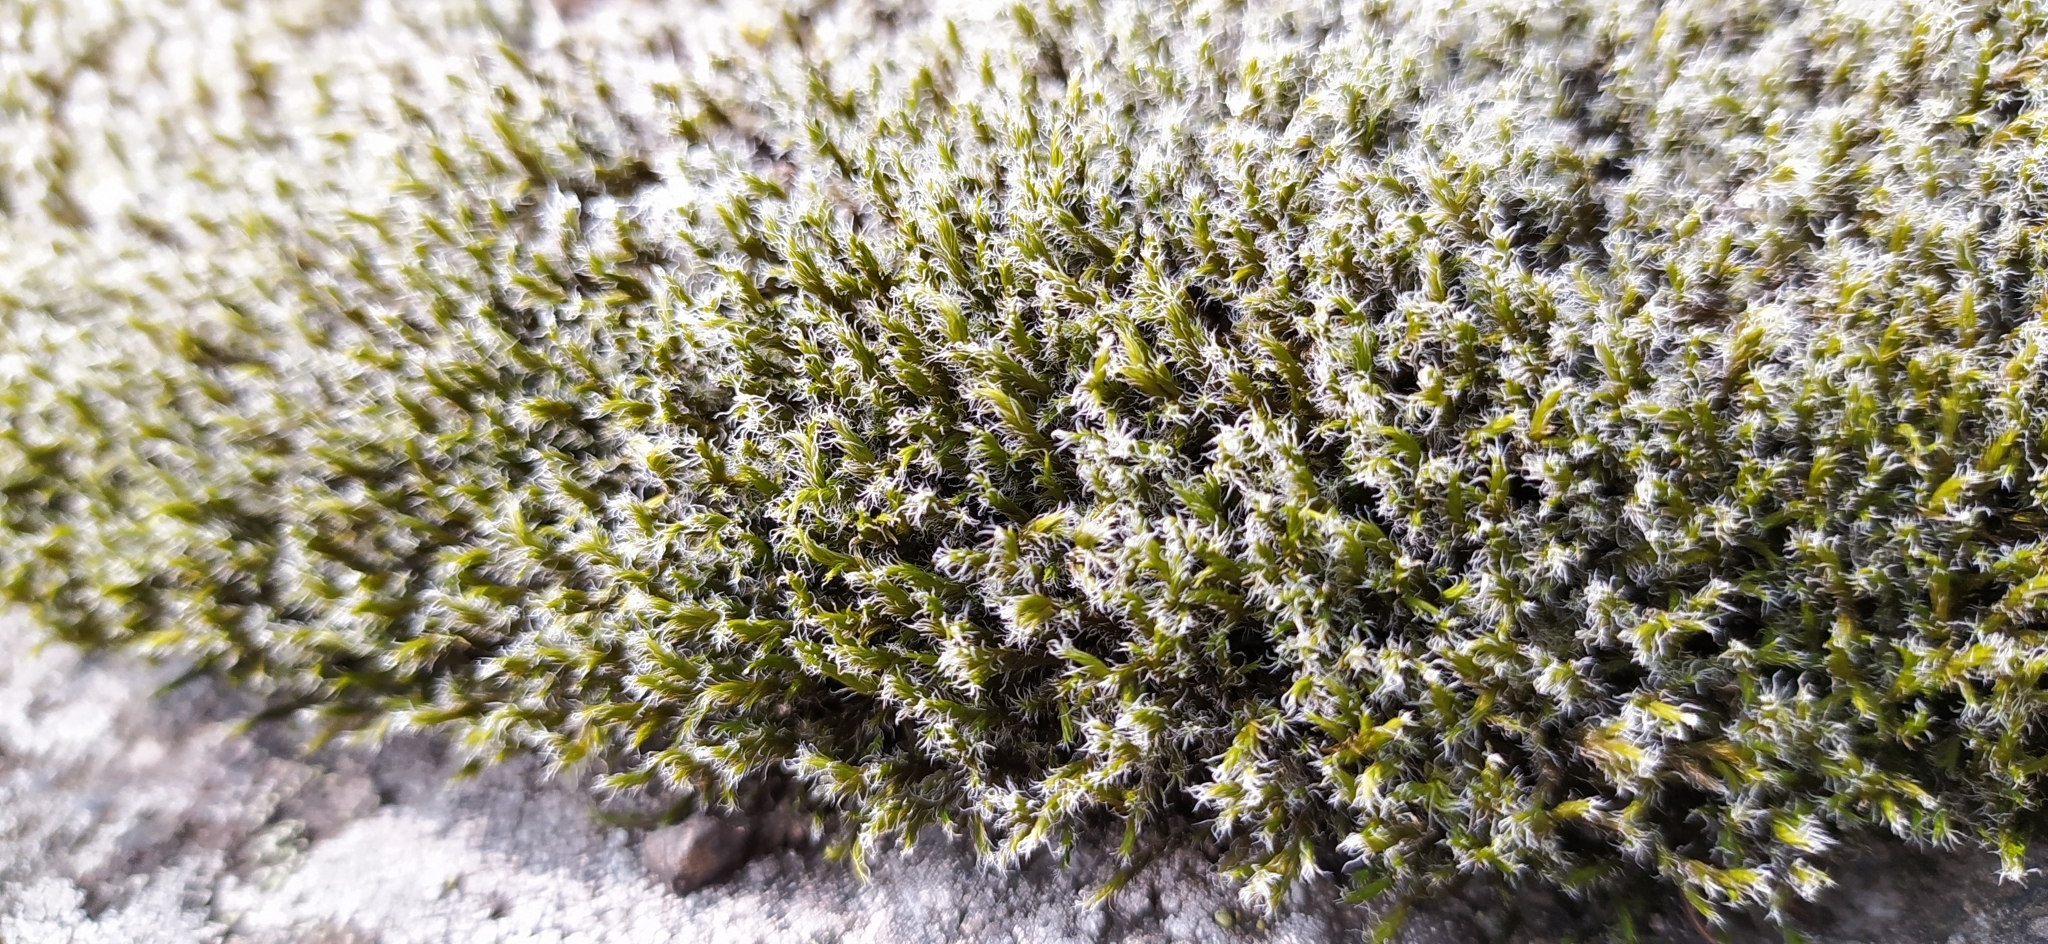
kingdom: Plantae
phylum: Bryophyta
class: Bryopsida
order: Grimmiales
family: Grimmiaceae
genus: Racomitrium
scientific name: Racomitrium lanuginosum
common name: Hoary rock moss
